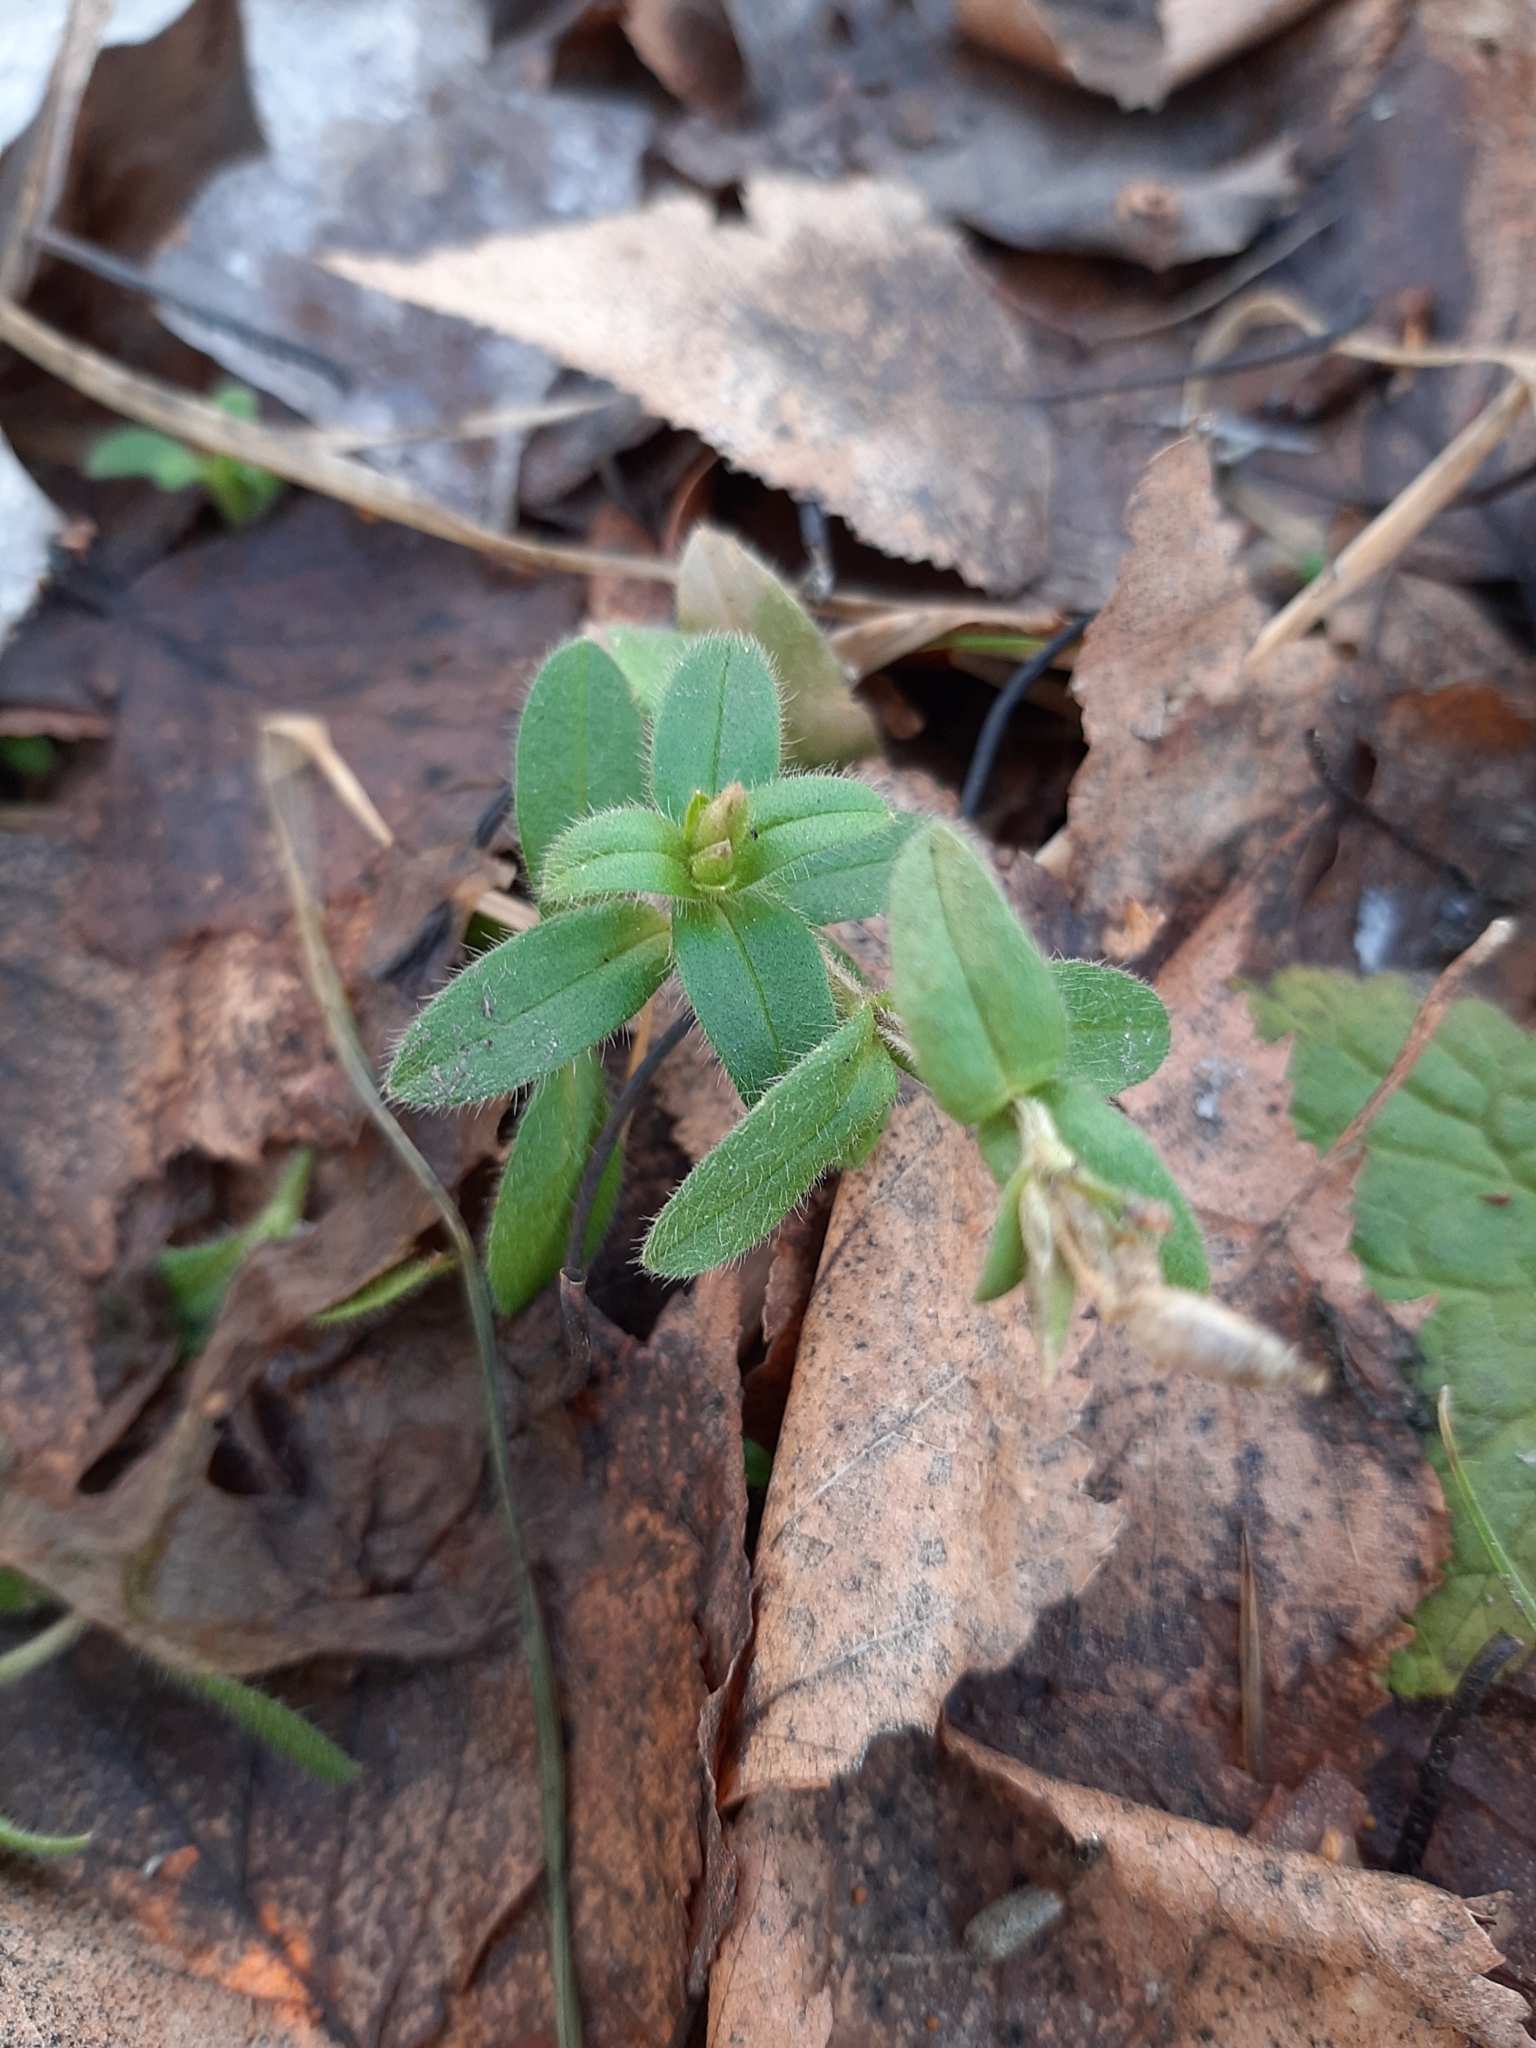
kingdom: Plantae
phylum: Tracheophyta
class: Magnoliopsida
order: Caryophyllales
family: Caryophyllaceae
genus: Cerastium
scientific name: Cerastium holosteoides
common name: Big chickweed
